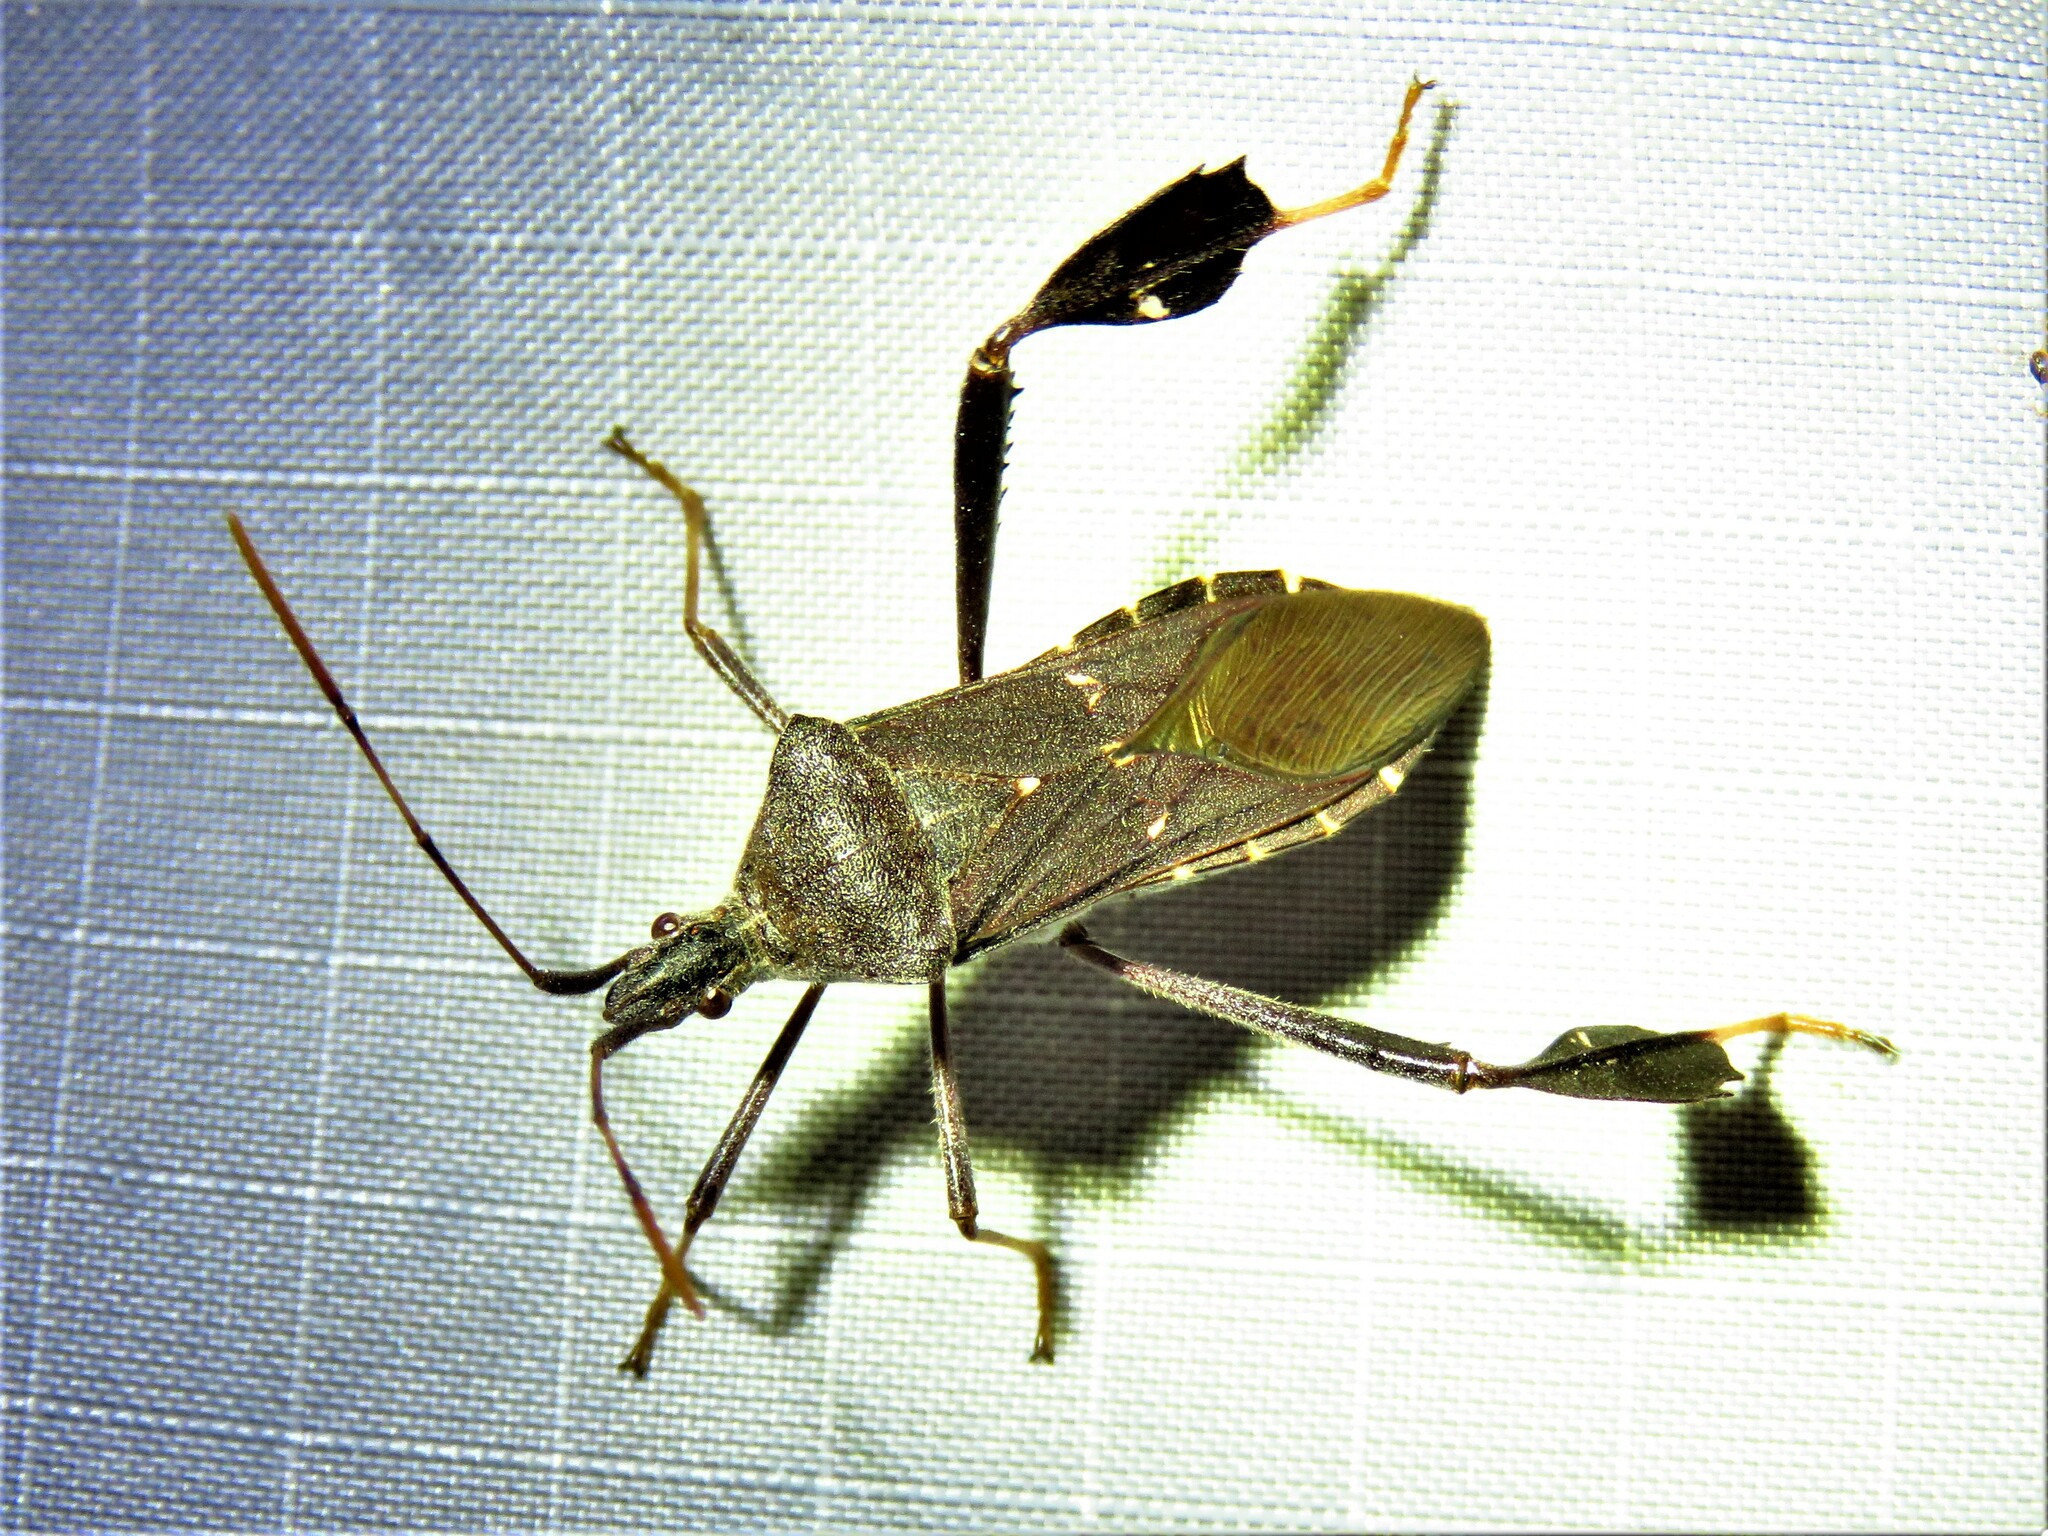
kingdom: Animalia
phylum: Arthropoda
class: Insecta
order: Hemiptera
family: Coreidae
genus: Leptoglossus
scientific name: Leptoglossus oppositus
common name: Northern leaf-footed bug
